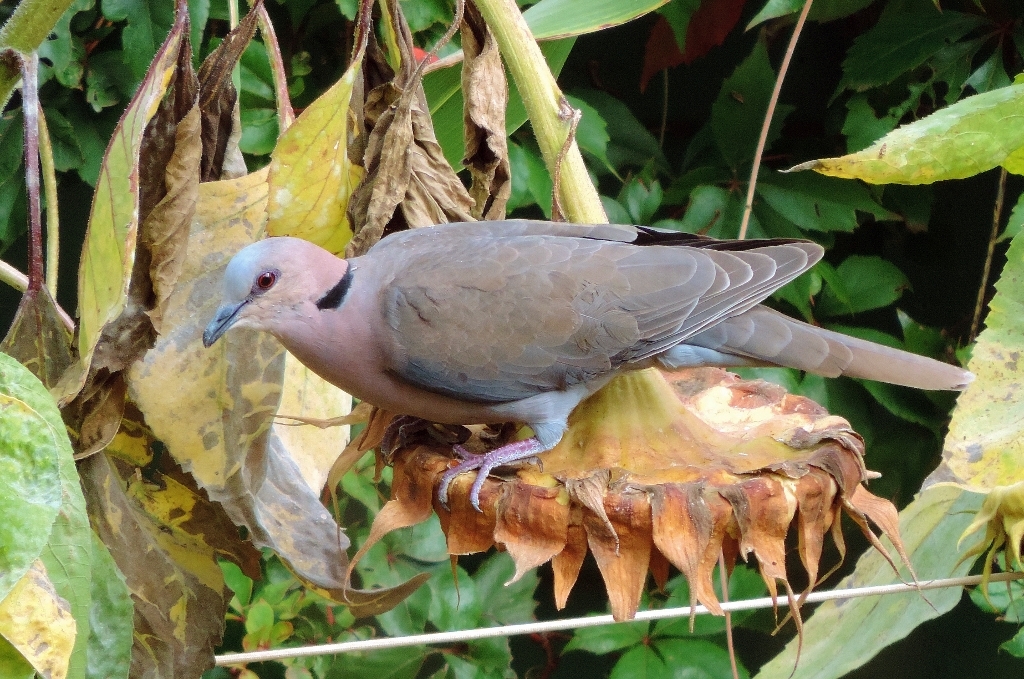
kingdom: Plantae
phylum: Tracheophyta
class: Magnoliopsida
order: Asterales
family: Asteraceae
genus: Helianthus
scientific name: Helianthus annuus
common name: Sunflower
